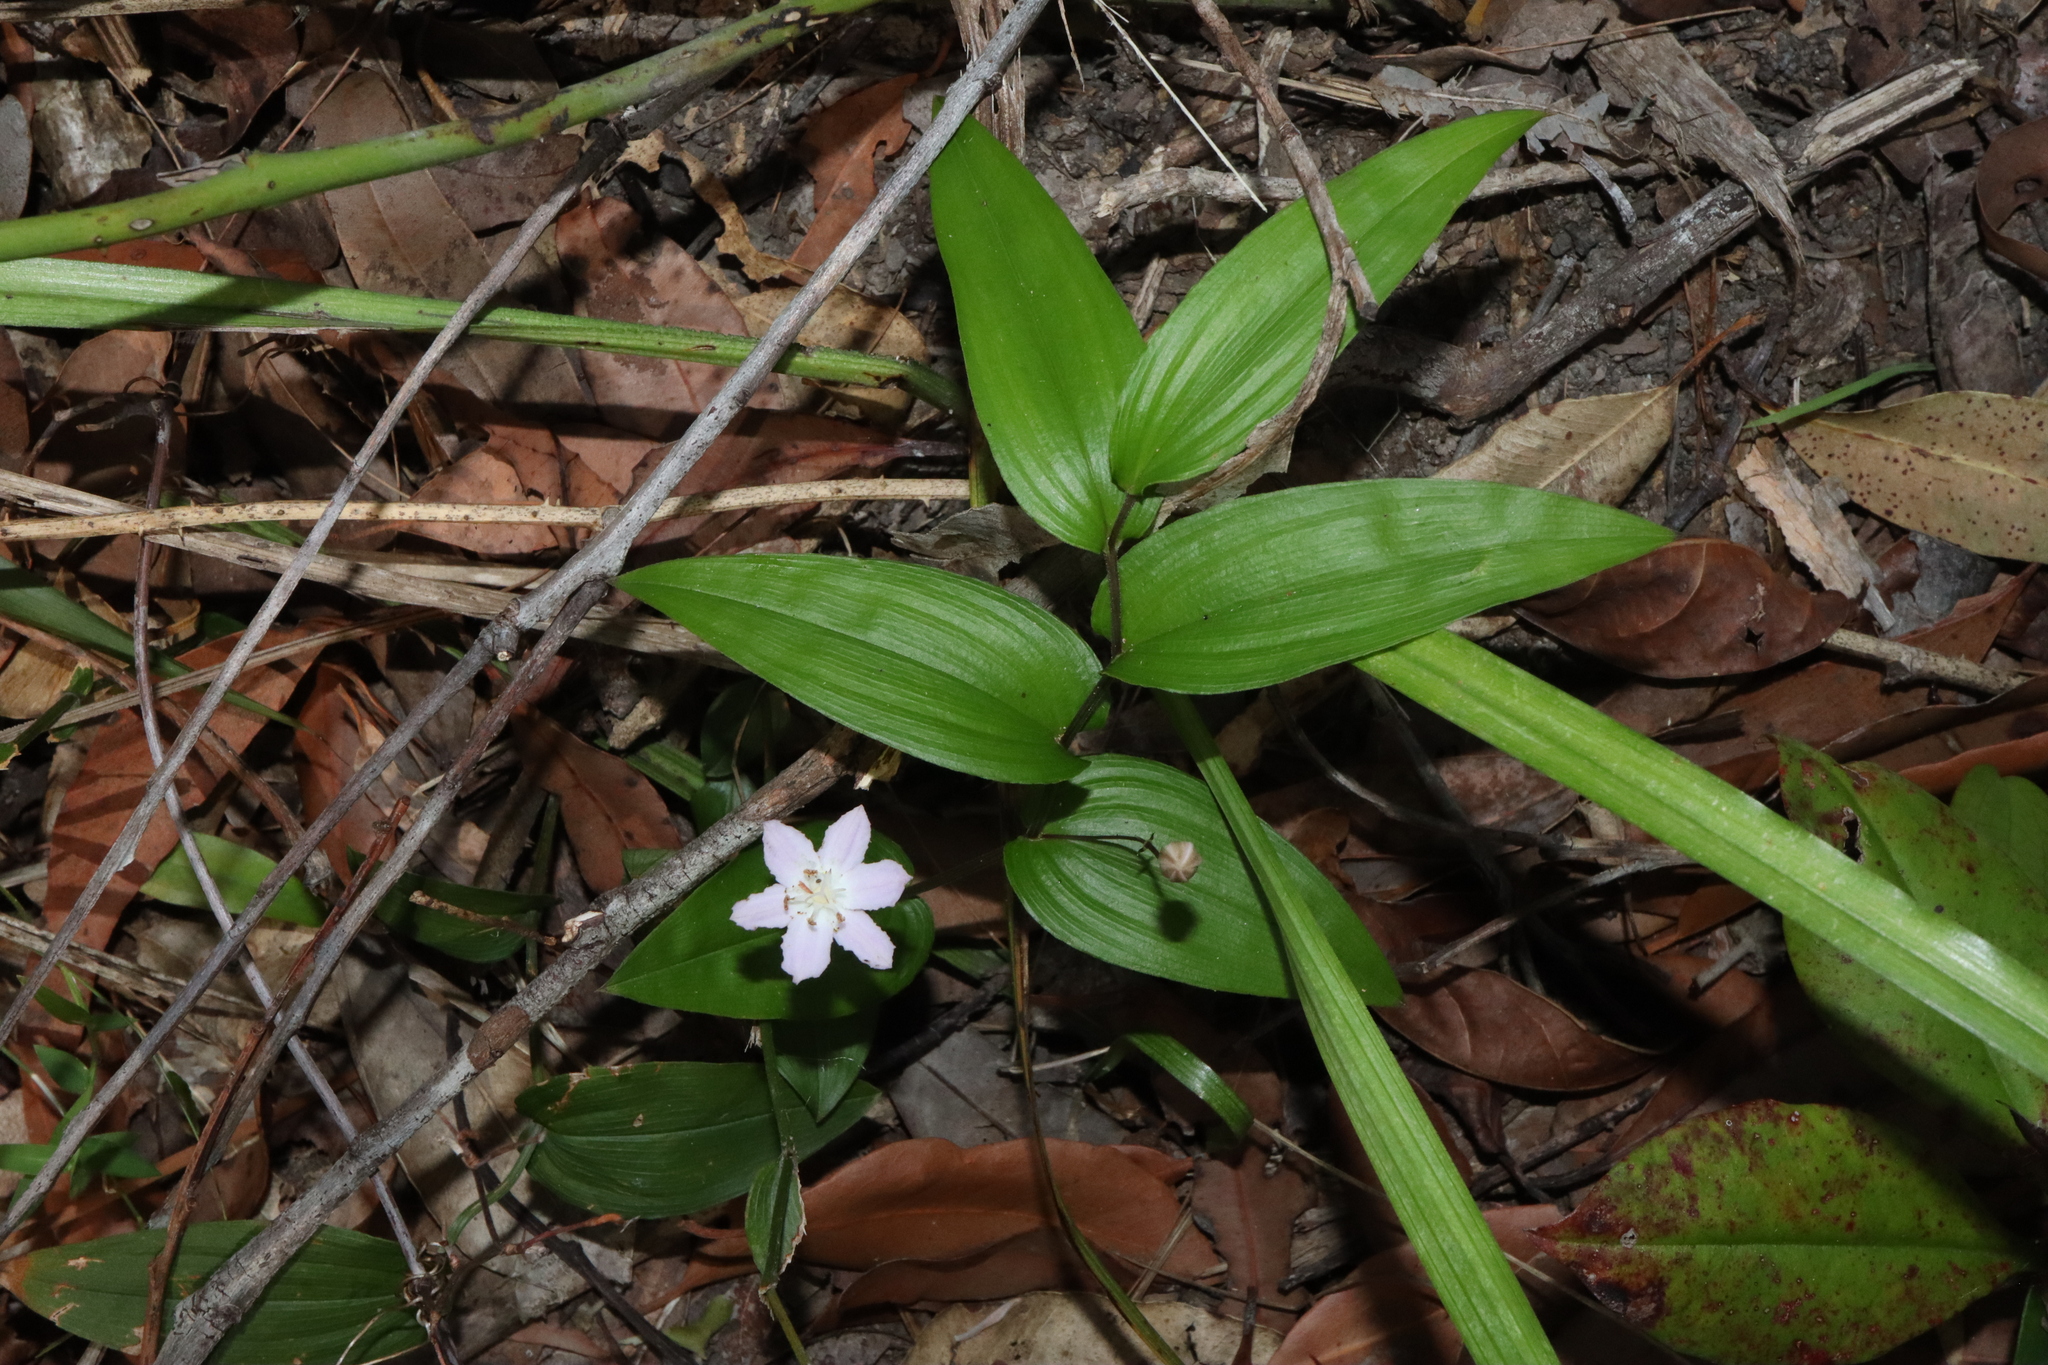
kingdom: Plantae
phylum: Tracheophyta
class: Liliopsida
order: Liliales
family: Colchicaceae
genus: Tripladenia
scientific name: Tripladenia cunninghamii
